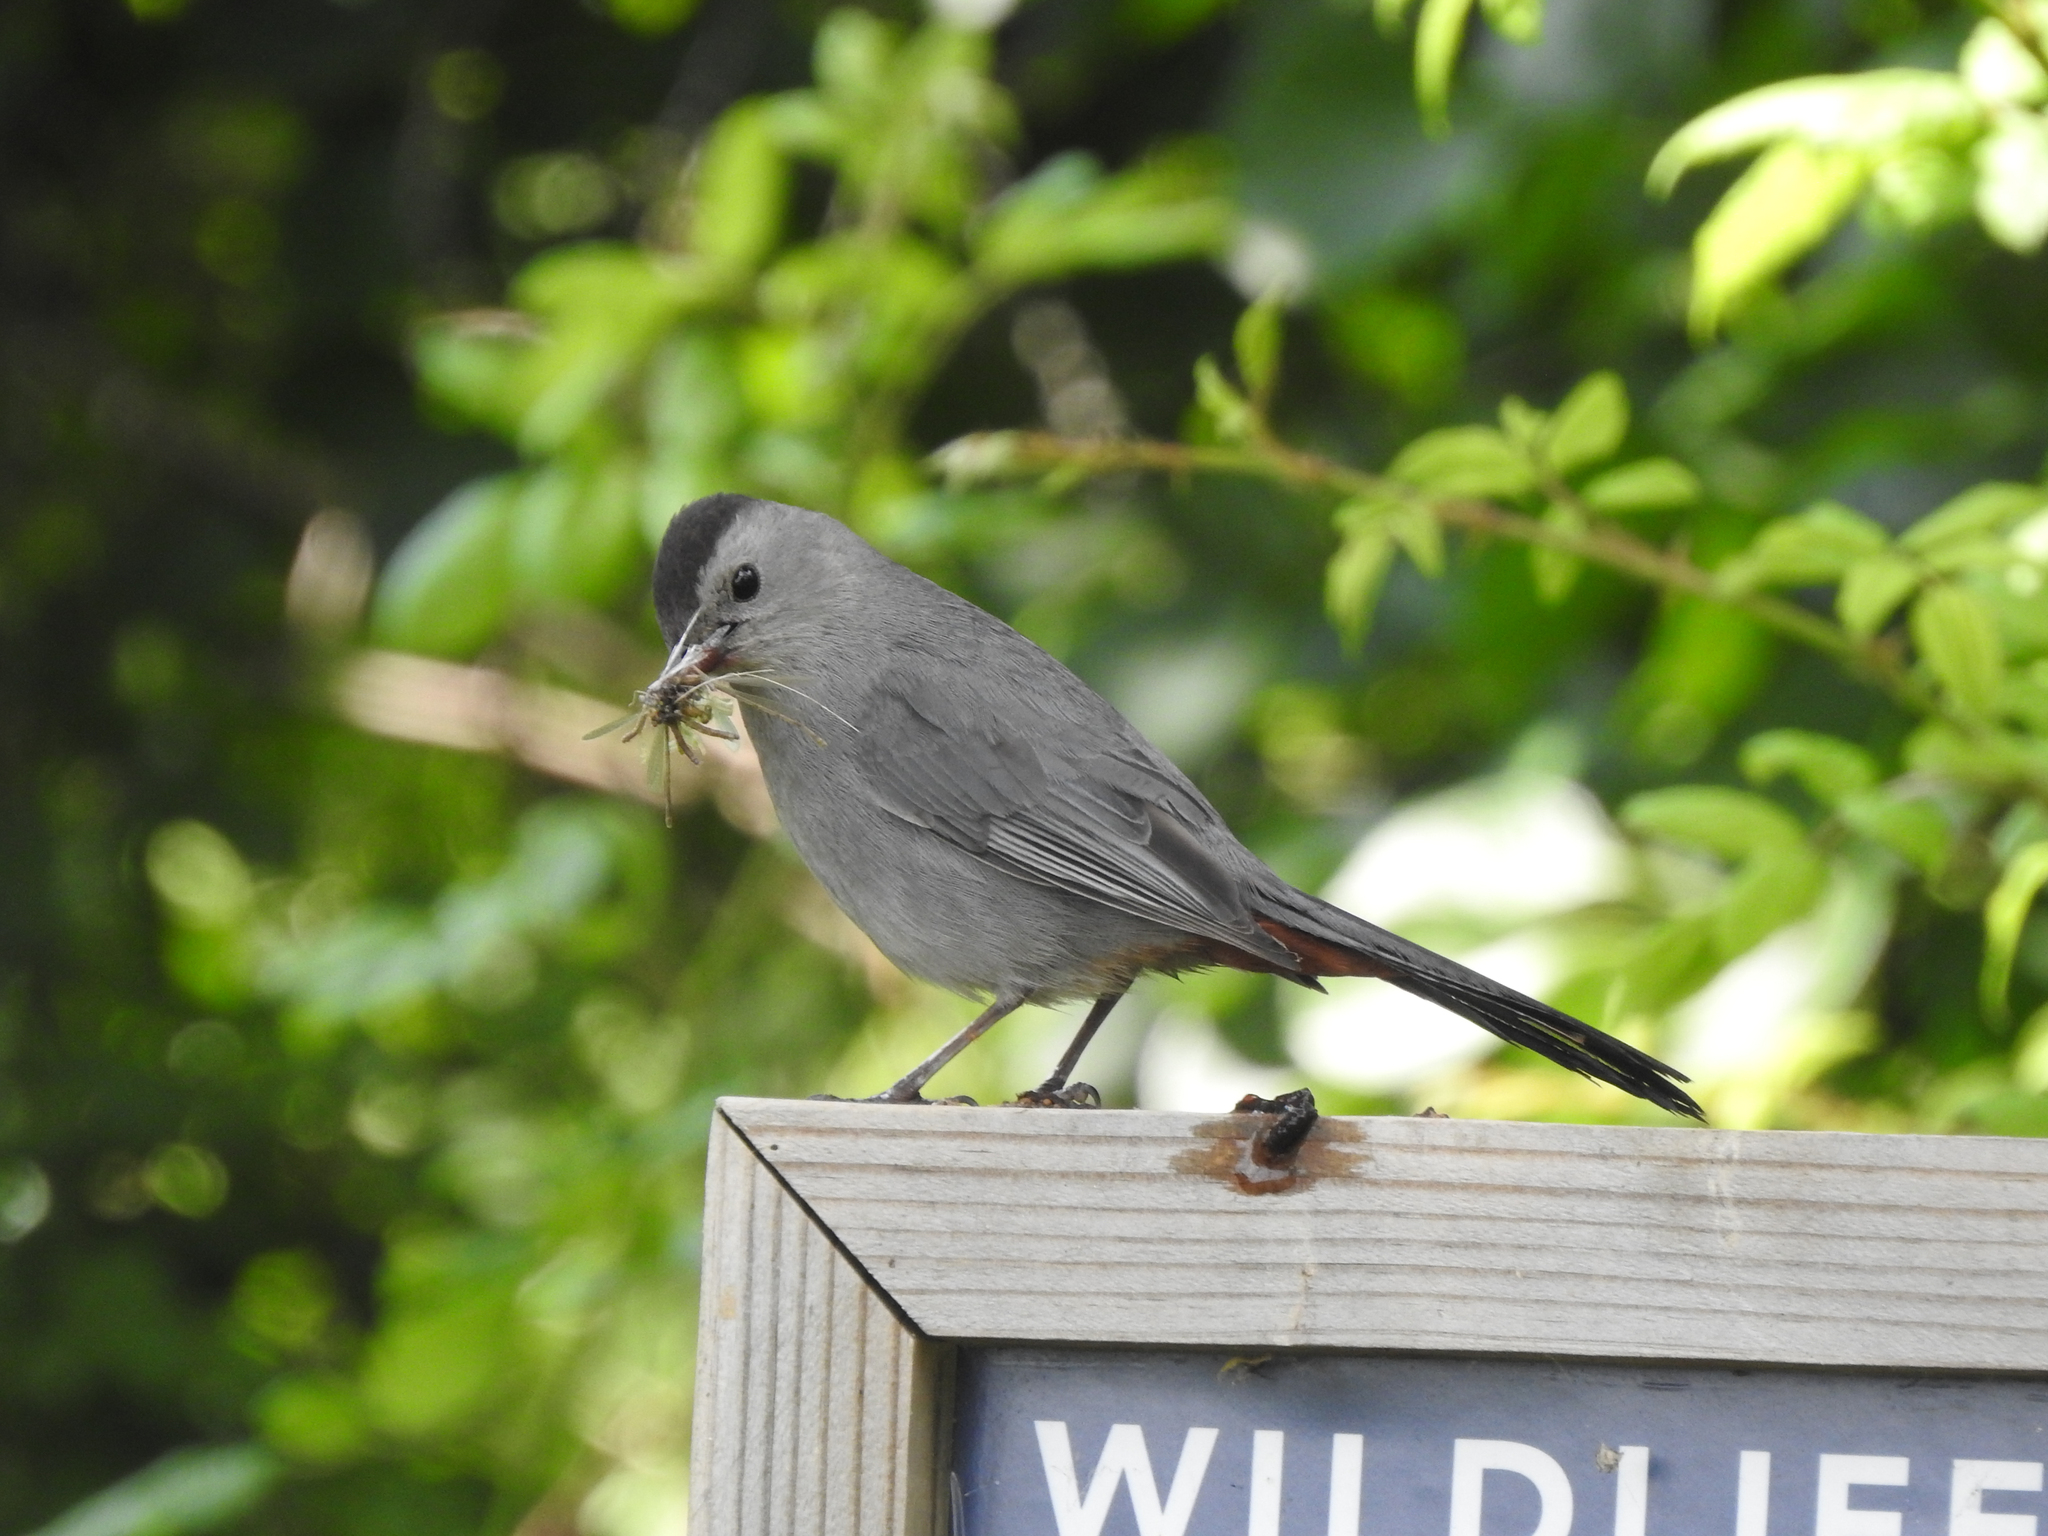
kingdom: Animalia
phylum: Chordata
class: Aves
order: Passeriformes
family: Mimidae
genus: Dumetella
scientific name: Dumetella carolinensis
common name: Gray catbird
